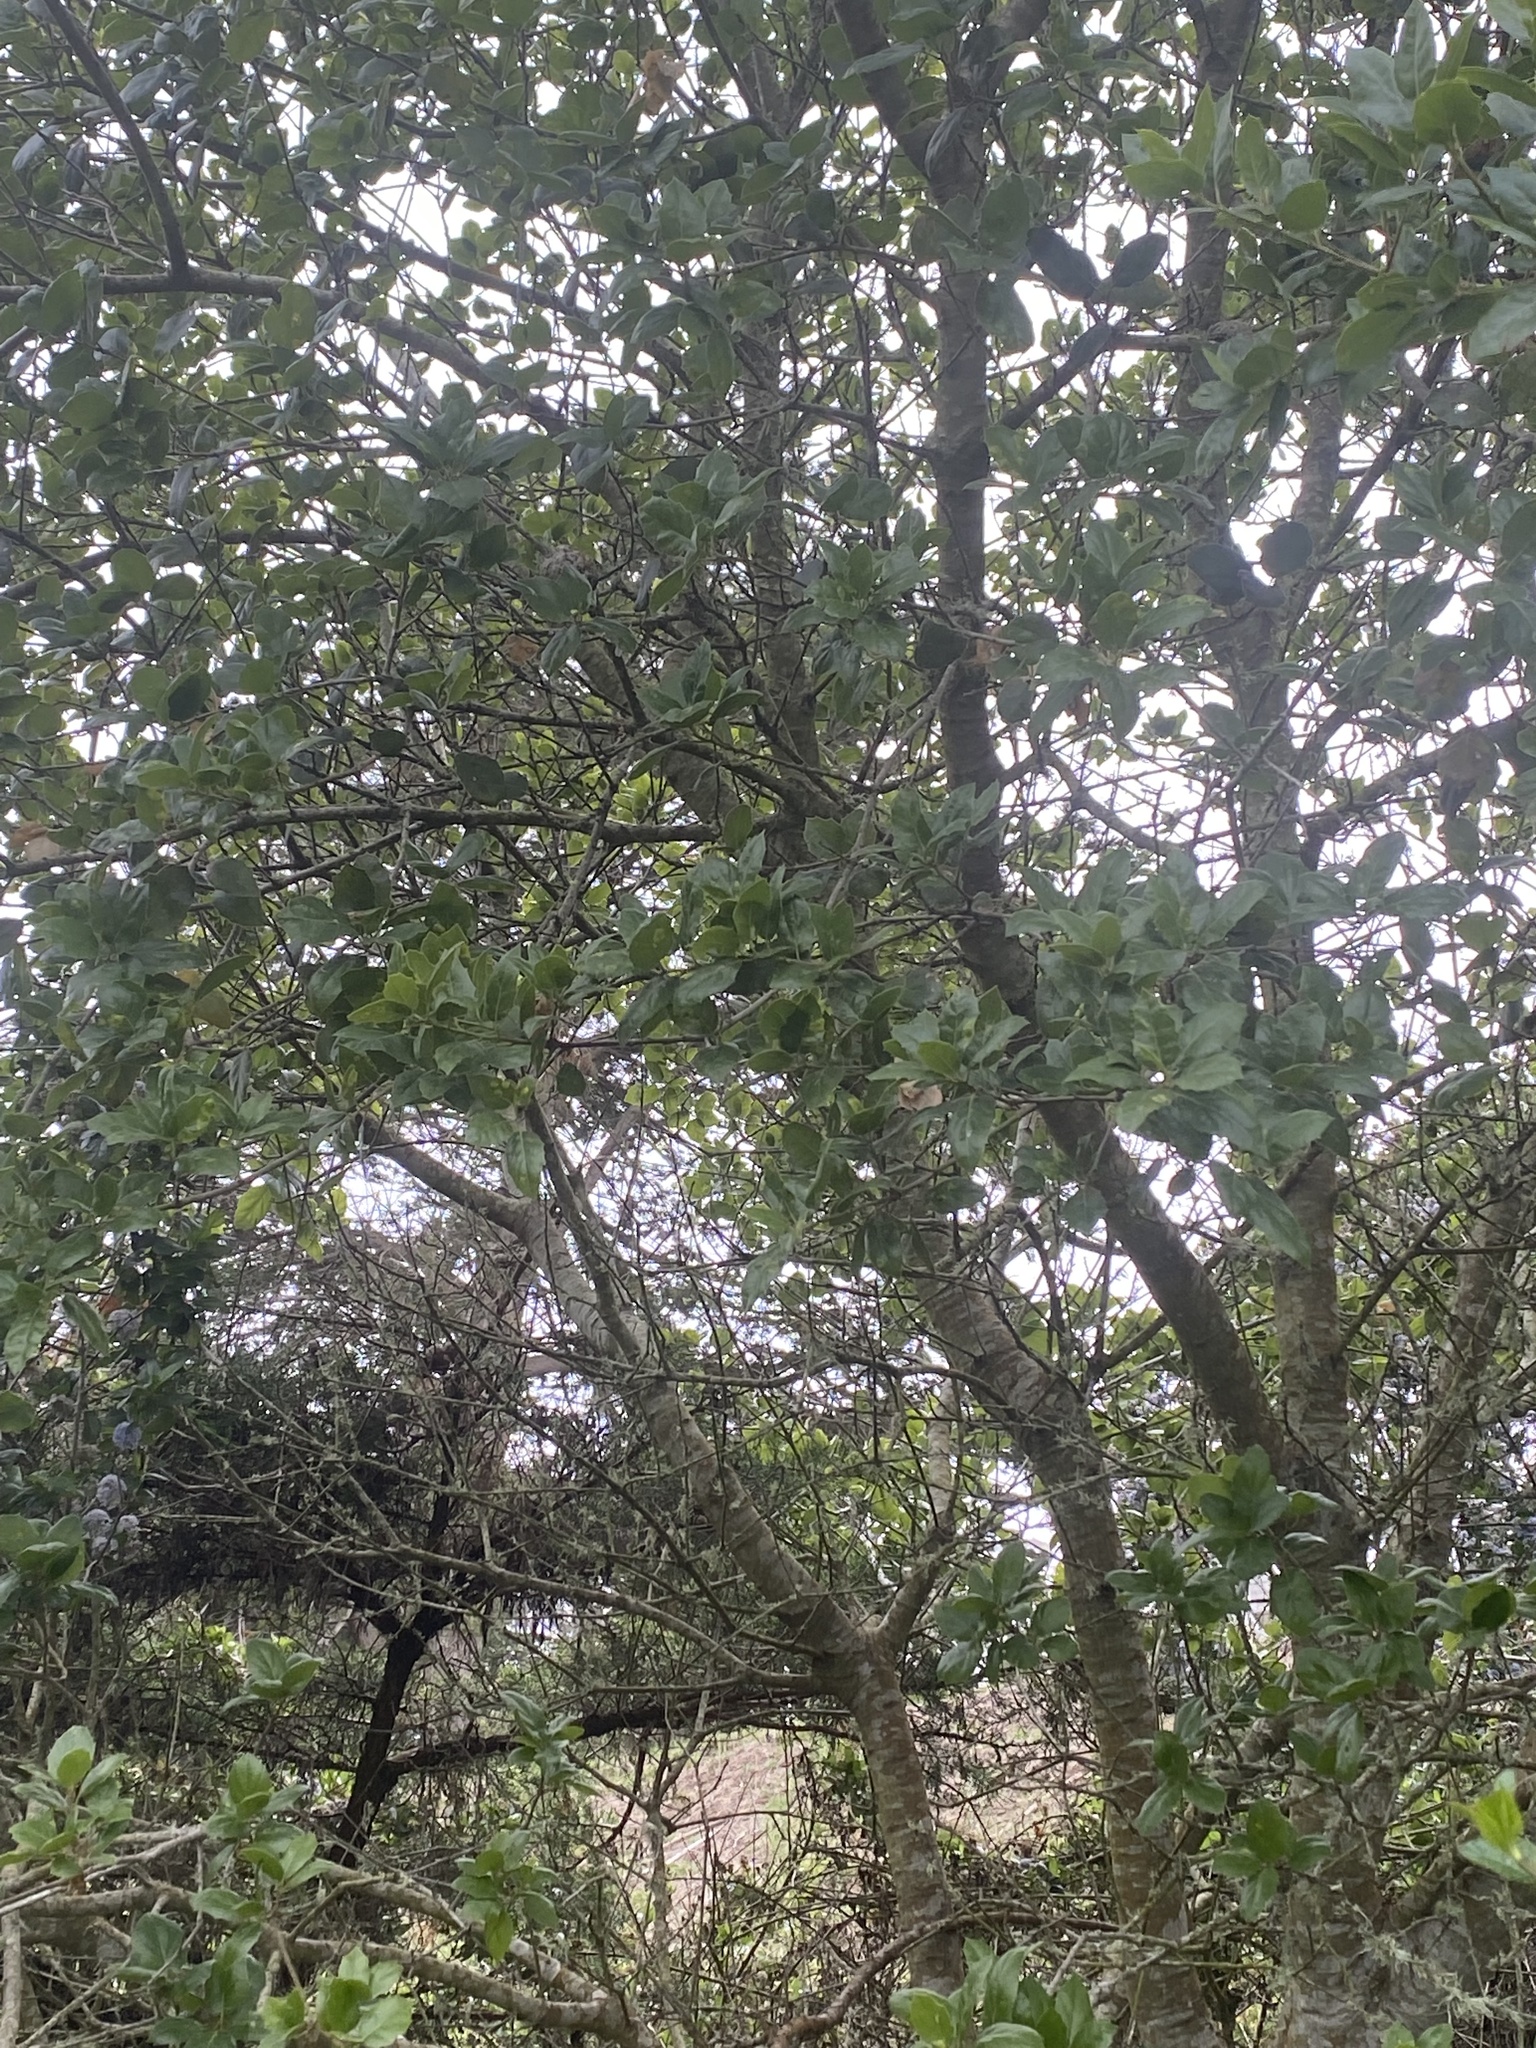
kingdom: Plantae
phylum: Tracheophyta
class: Magnoliopsida
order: Fagales
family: Fagaceae
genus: Quercus
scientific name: Quercus agrifolia
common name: California live oak
